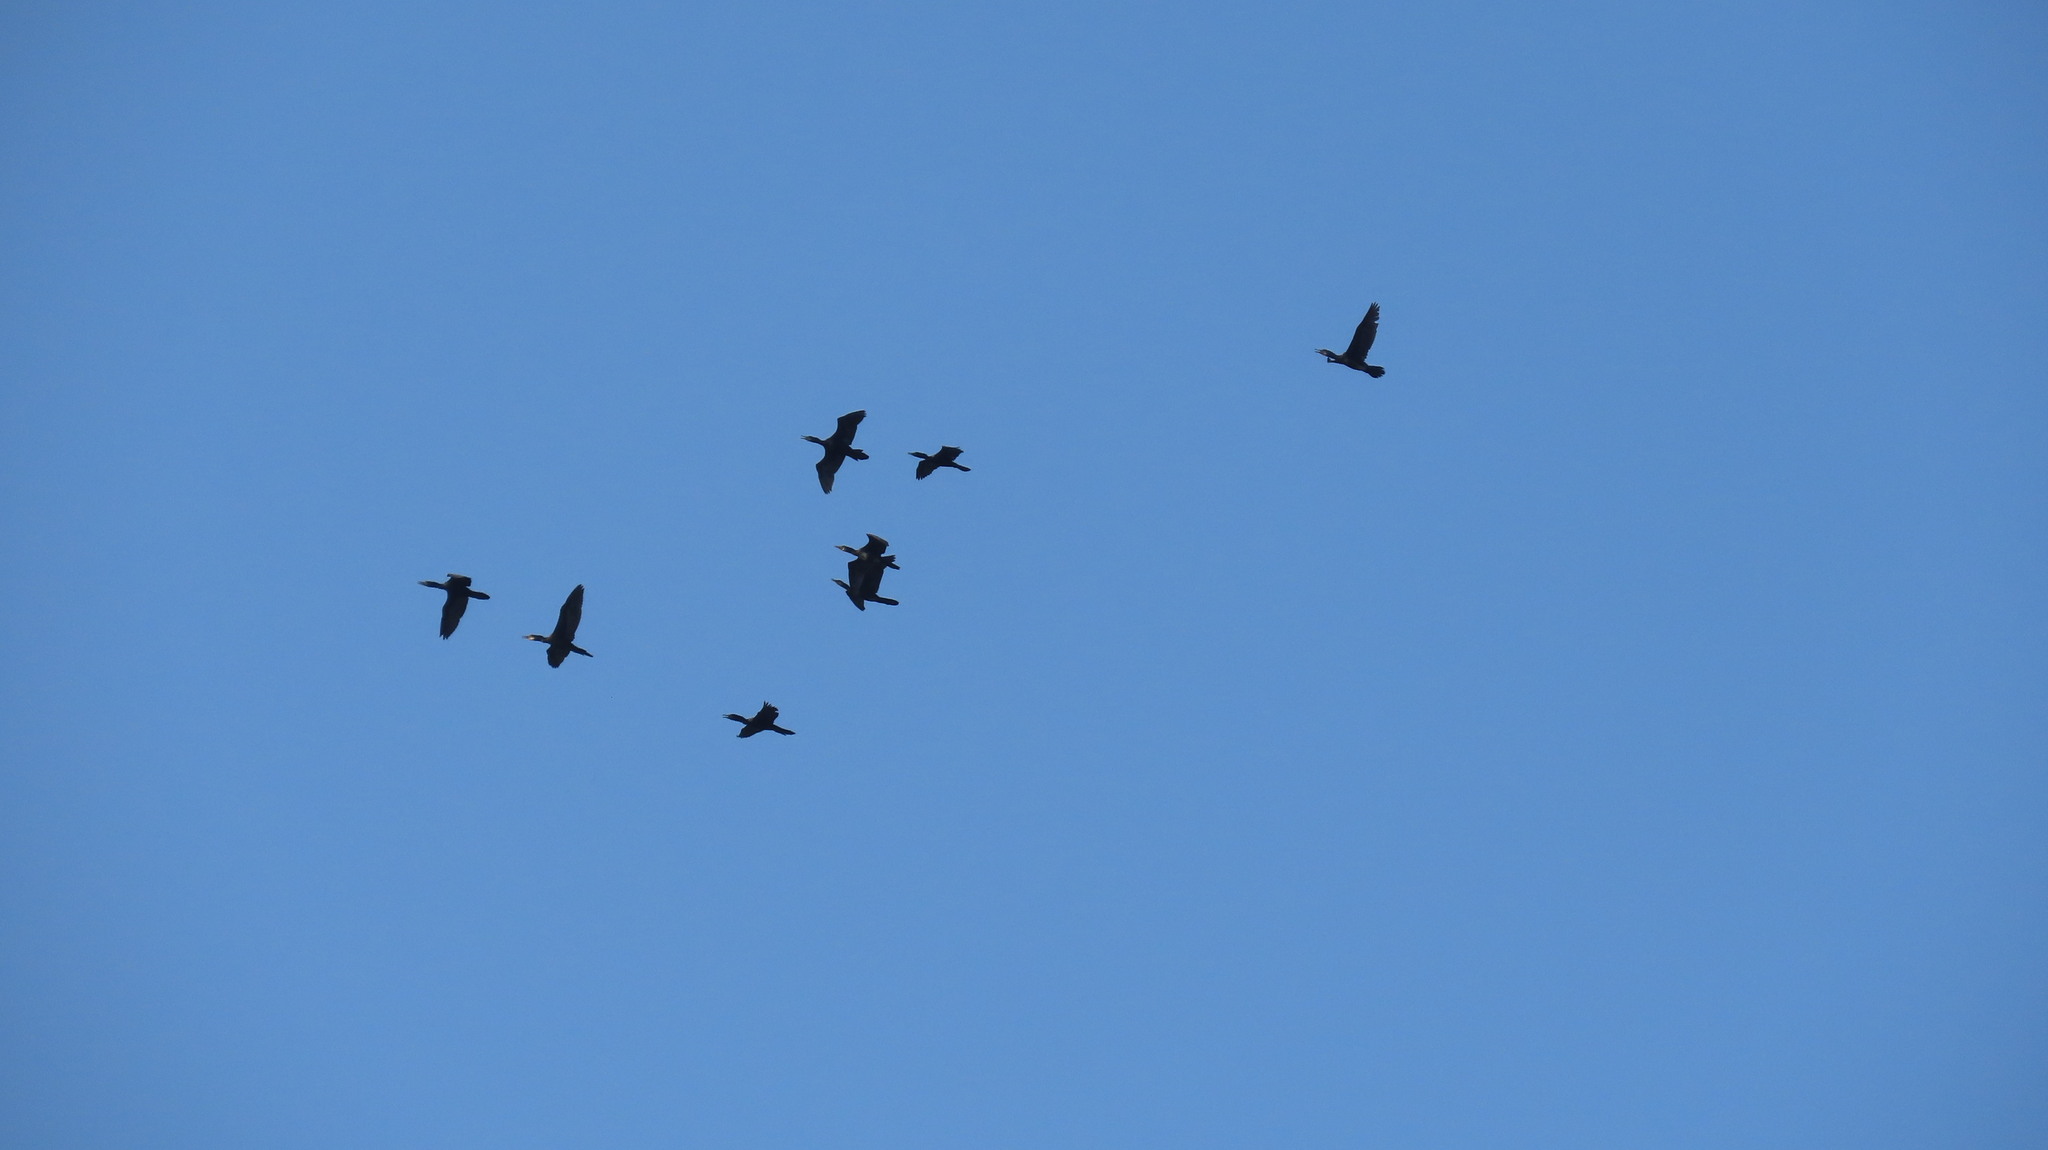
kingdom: Animalia
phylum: Chordata
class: Aves
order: Suliformes
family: Phalacrocoracidae
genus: Phalacrocorax
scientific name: Phalacrocorax carbo
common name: Great cormorant
